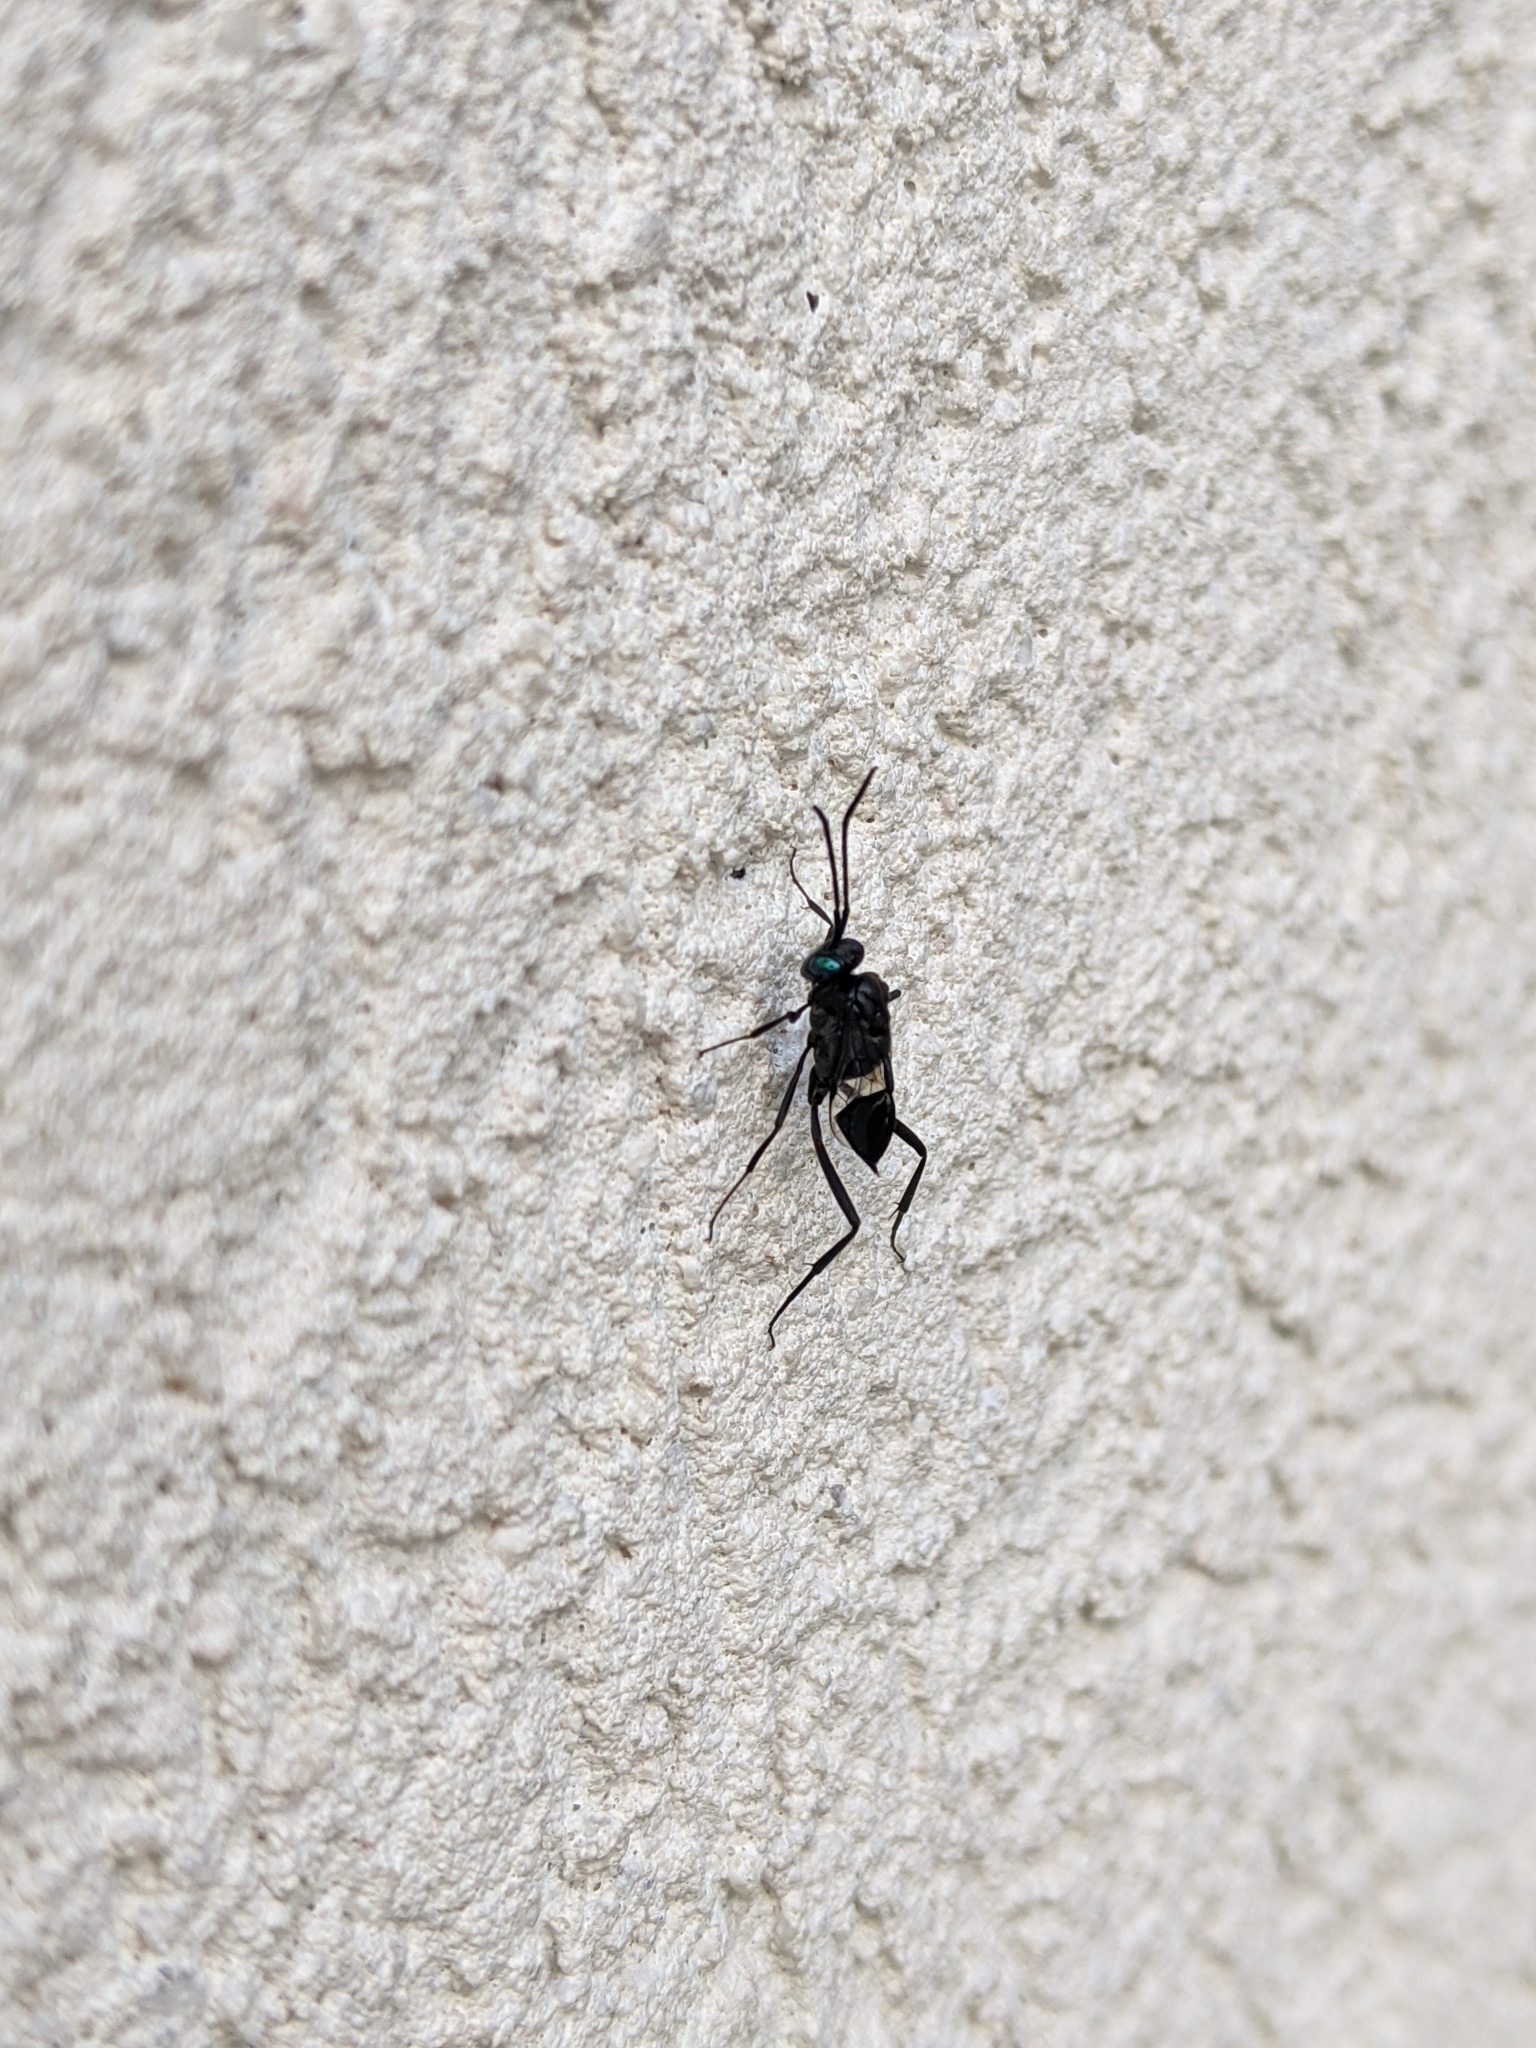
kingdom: Animalia
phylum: Arthropoda
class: Insecta
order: Hymenoptera
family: Evaniidae
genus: Evania
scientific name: Evania appendigaster
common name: Ensign wasp
